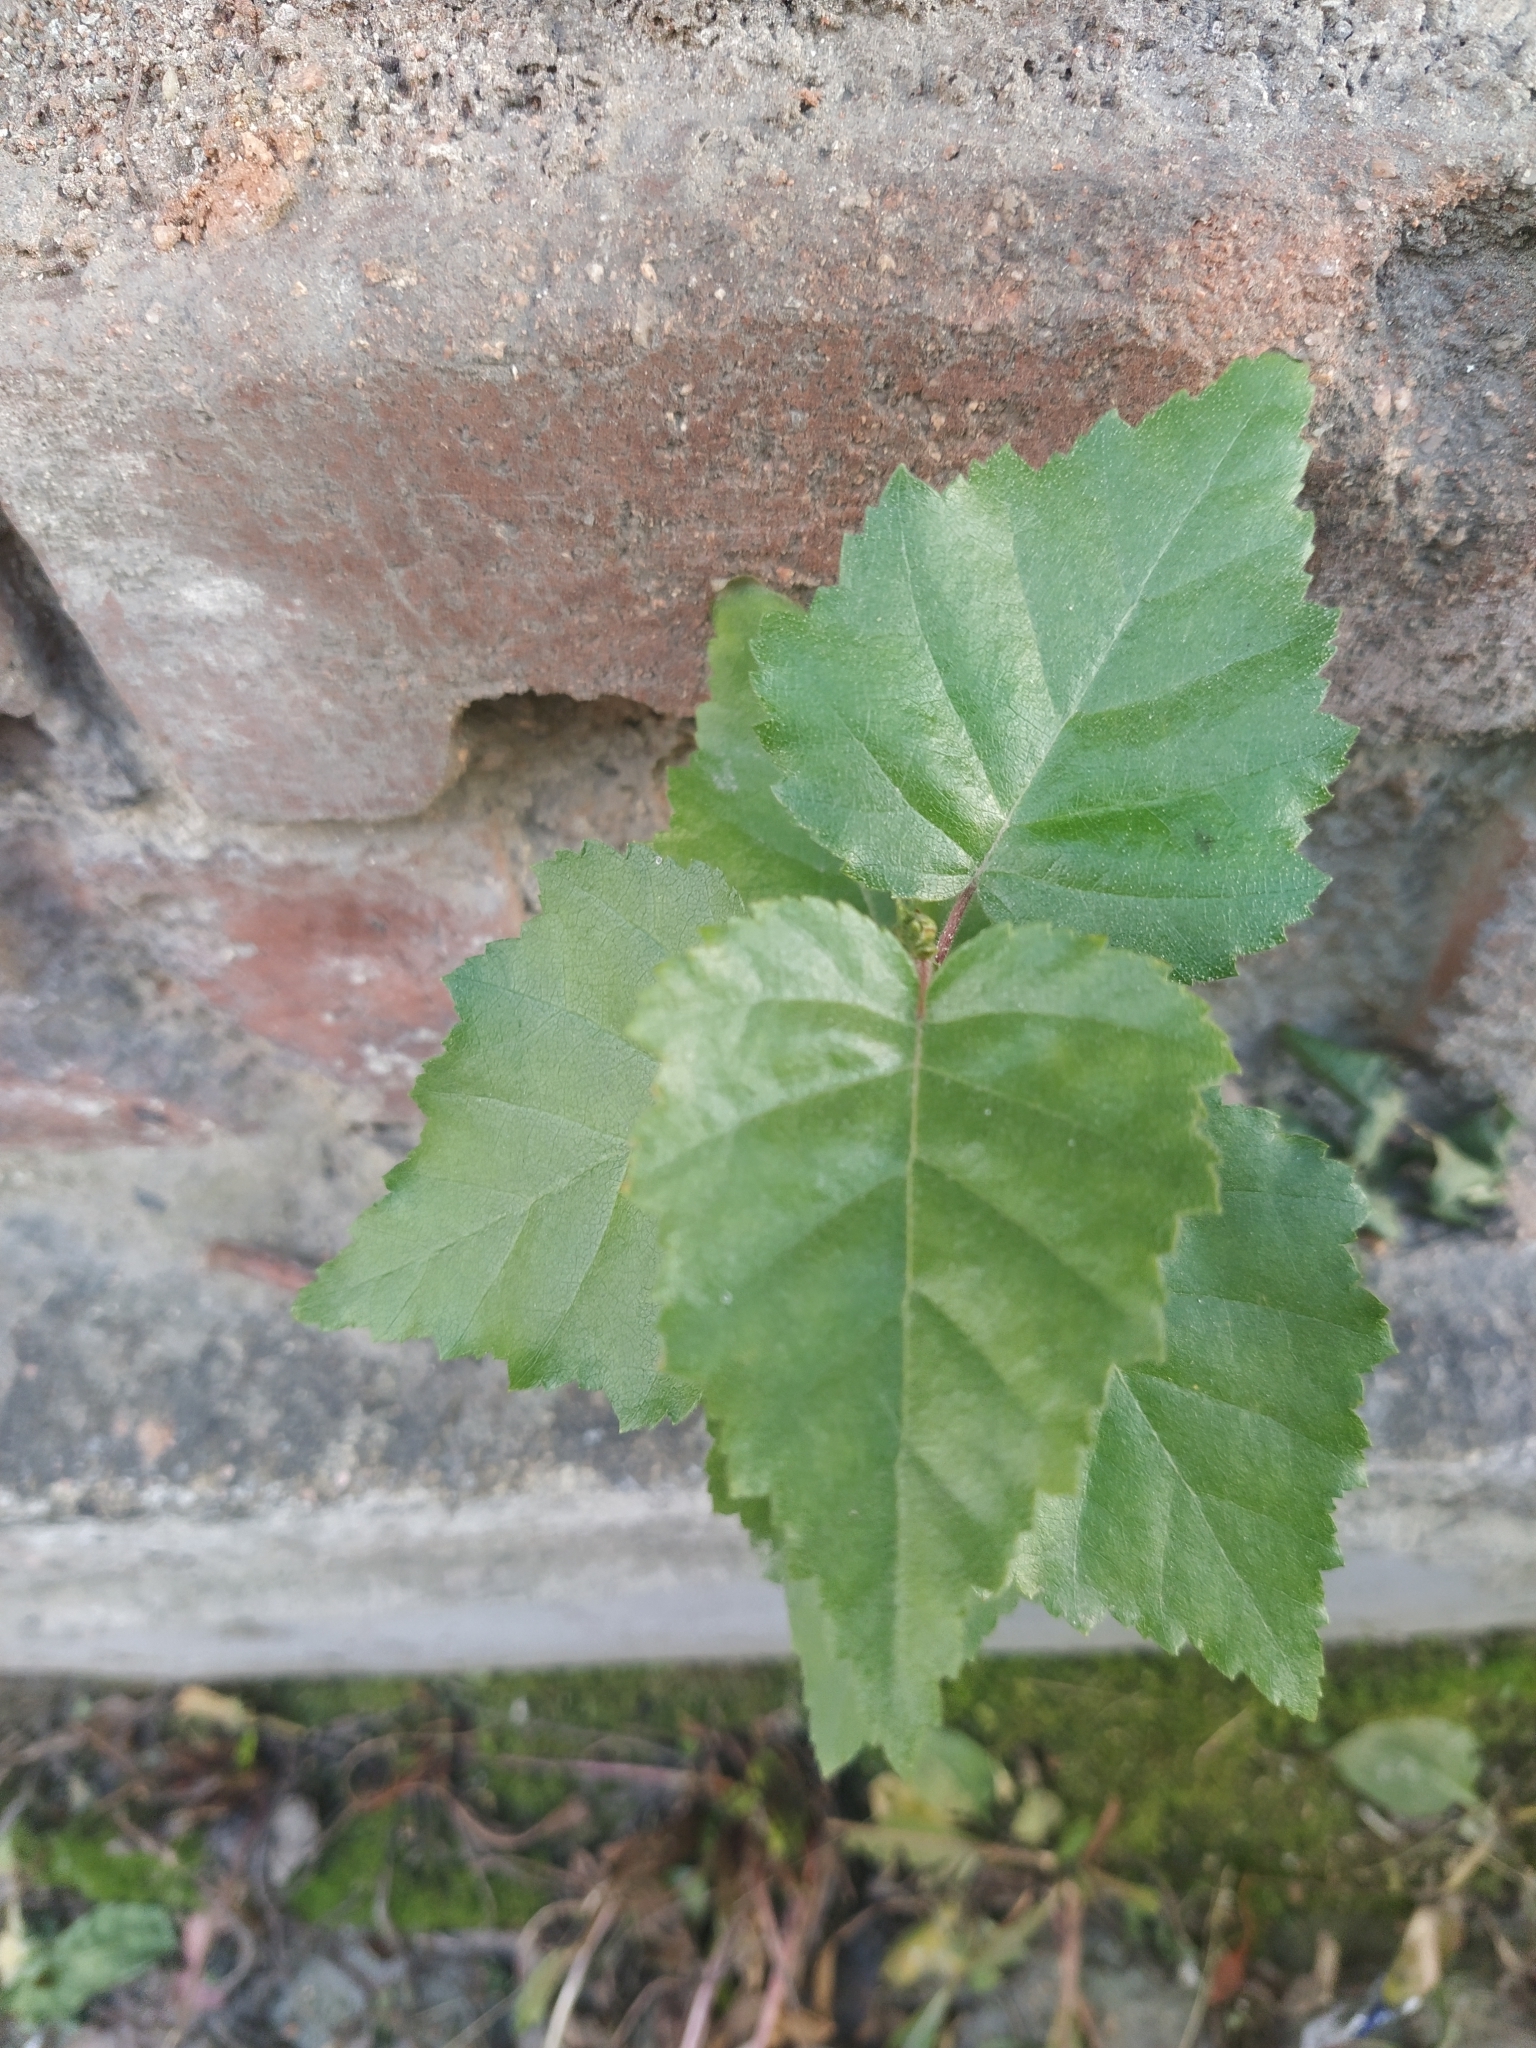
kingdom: Plantae
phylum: Tracheophyta
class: Magnoliopsida
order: Fagales
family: Betulaceae
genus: Betula
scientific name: Betula pubescens
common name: Downy birch
